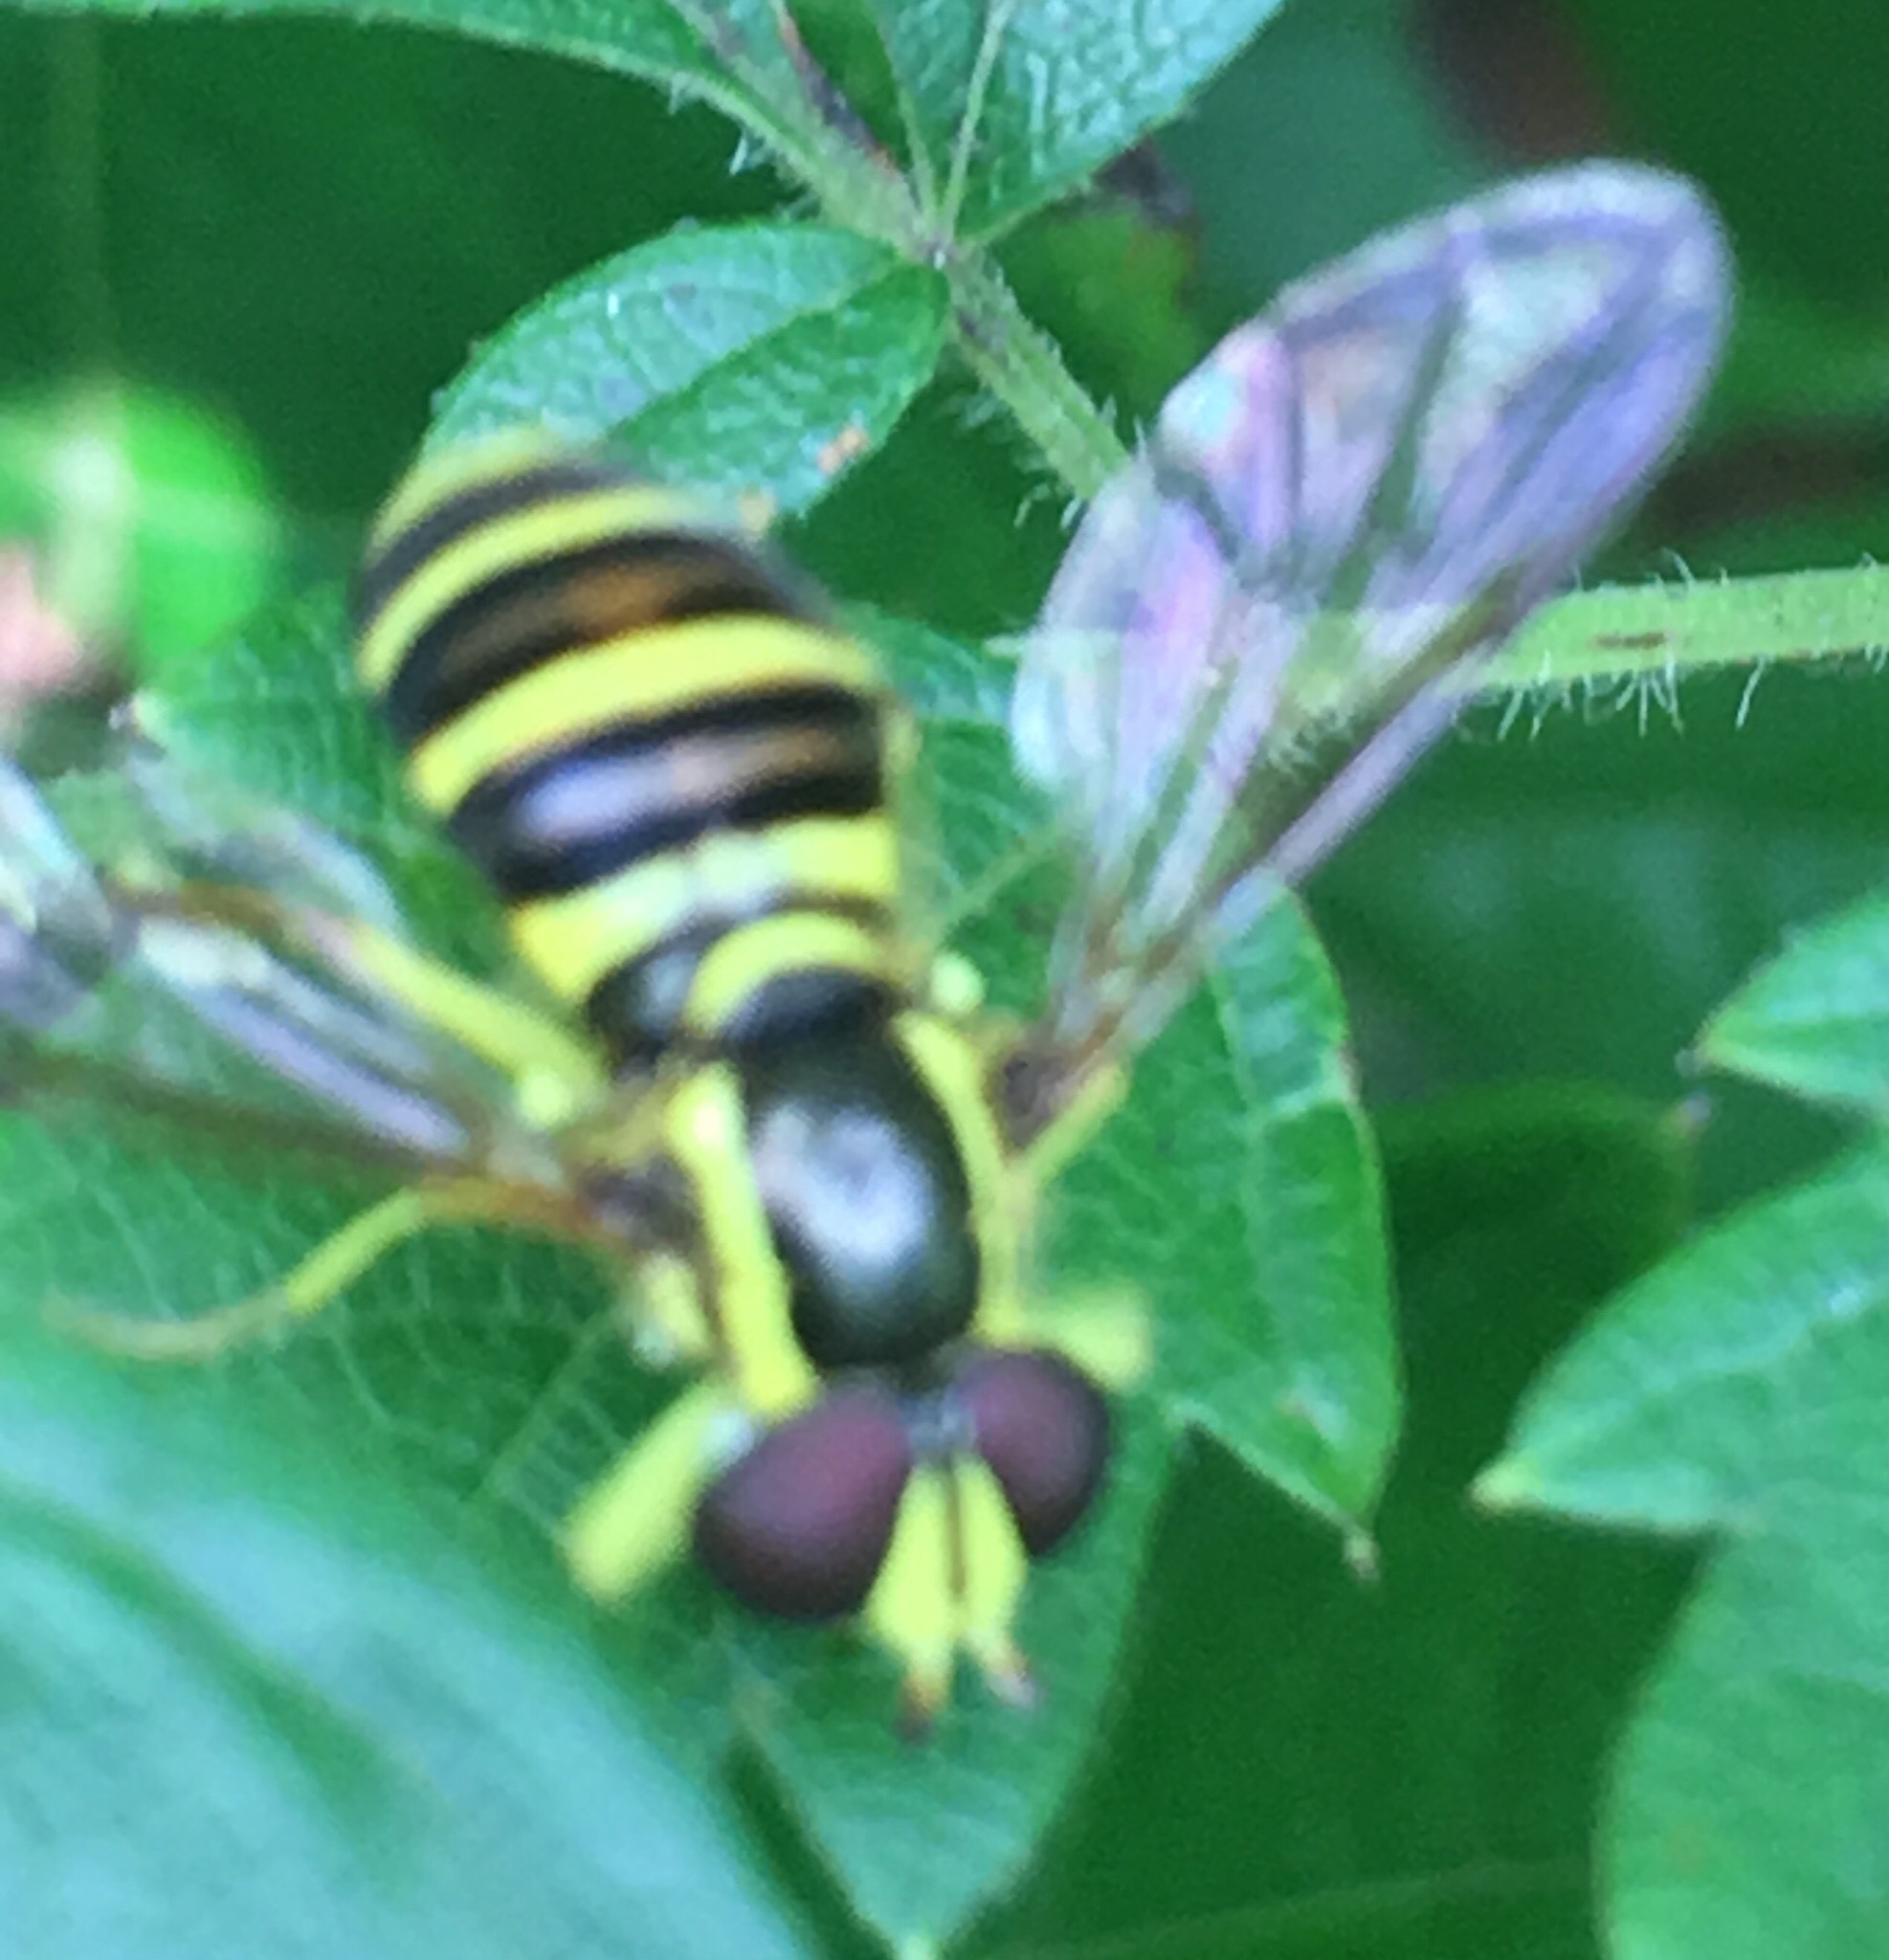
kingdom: Animalia
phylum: Arthropoda
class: Insecta
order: Diptera
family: Syrphidae
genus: Philhelius
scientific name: Philhelius flavipes
